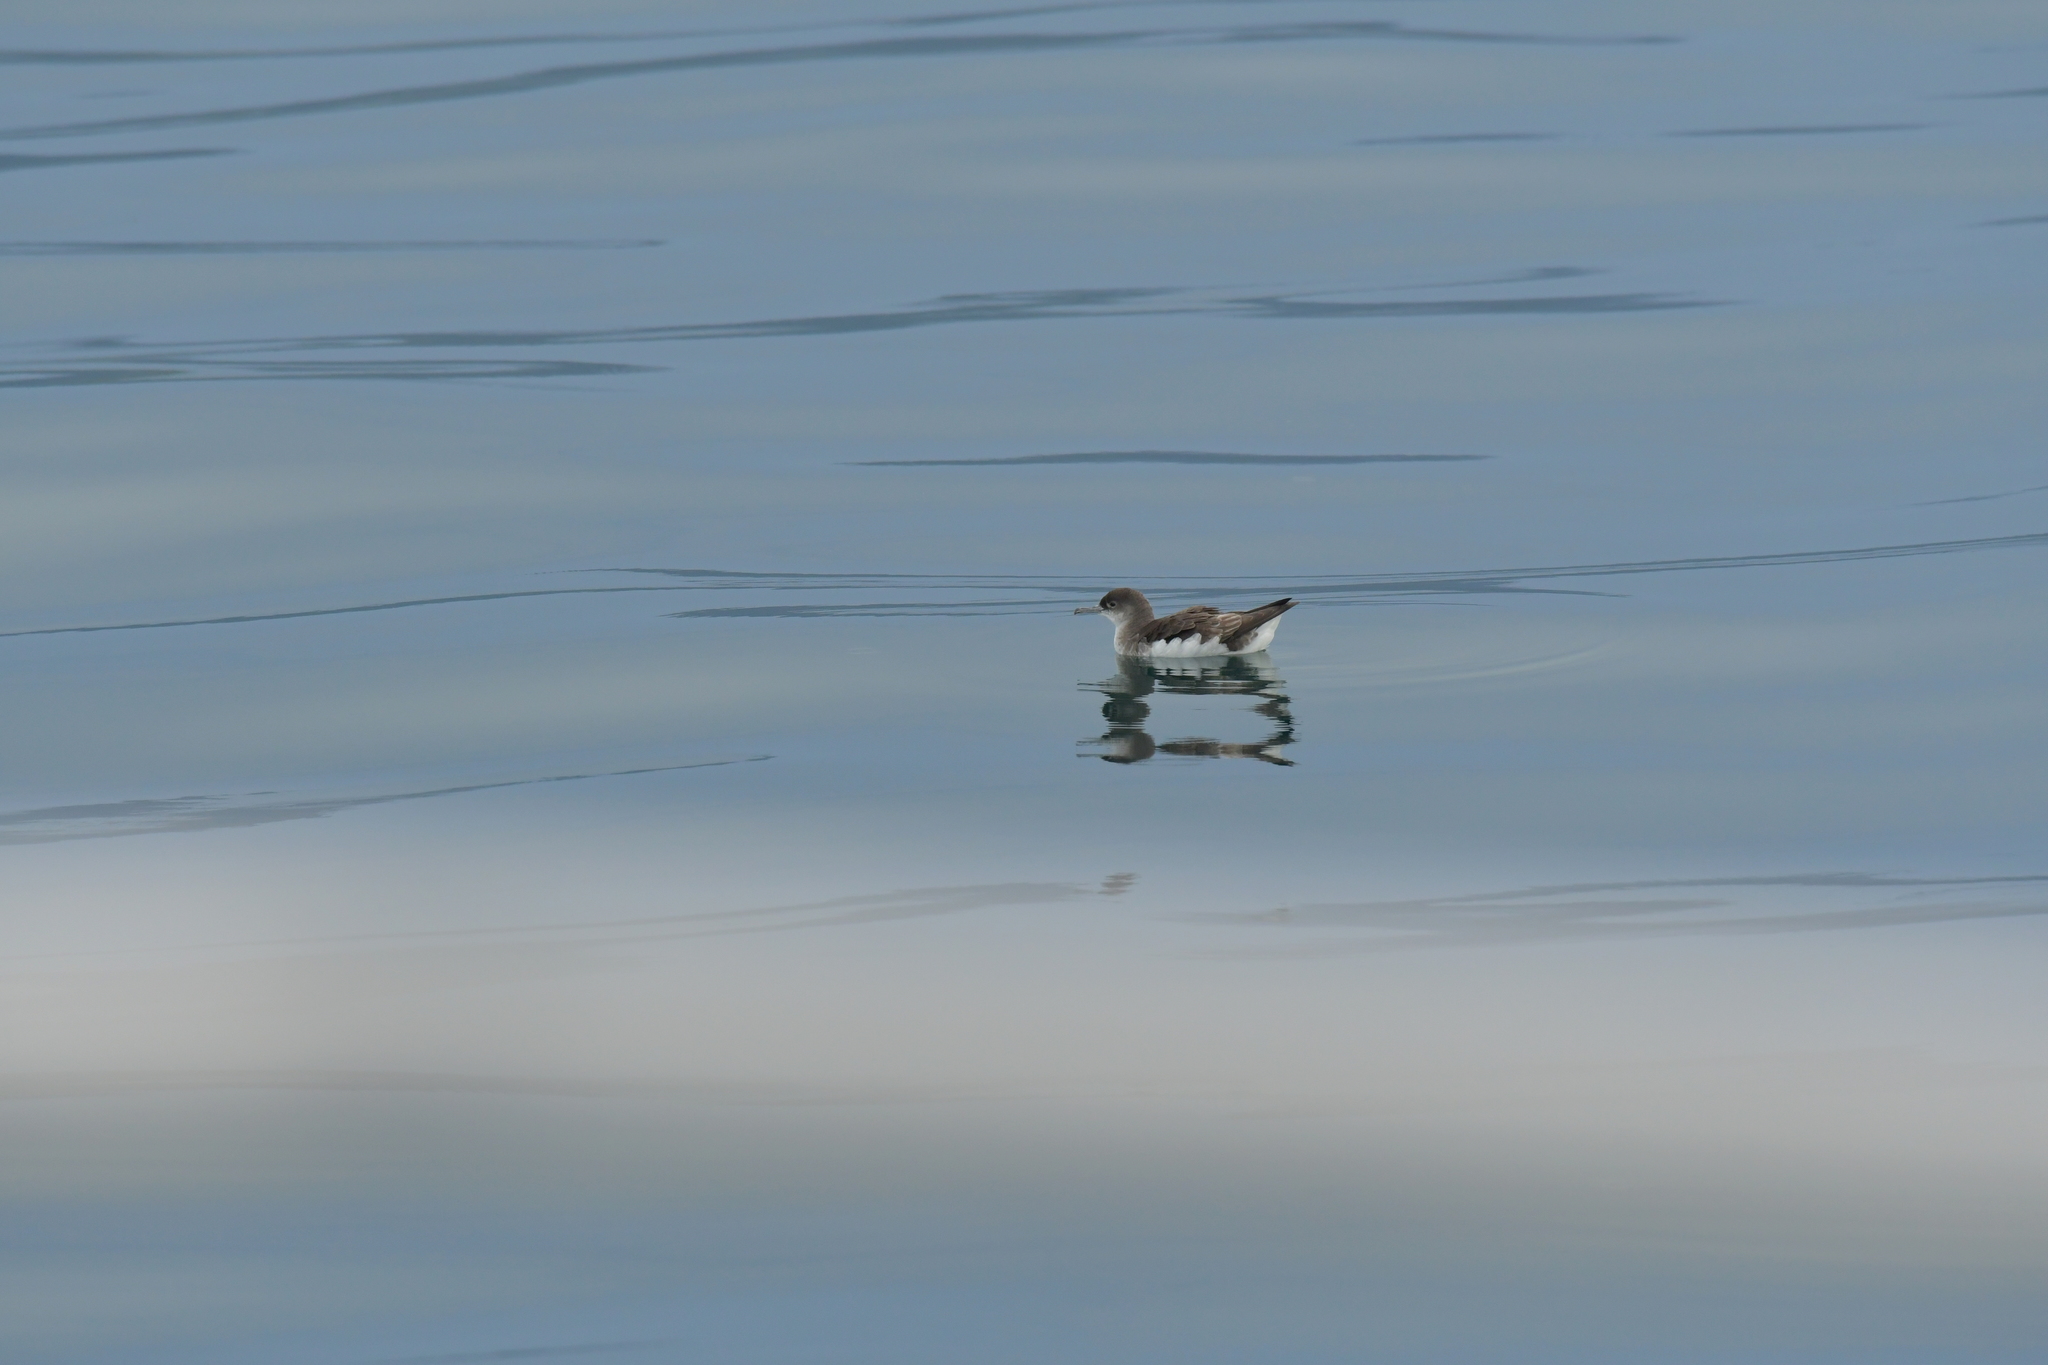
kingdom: Animalia
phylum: Chordata
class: Aves
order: Procellariiformes
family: Procellariidae
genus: Puffinus
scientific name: Puffinus gavia
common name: Fluttering shearwater
